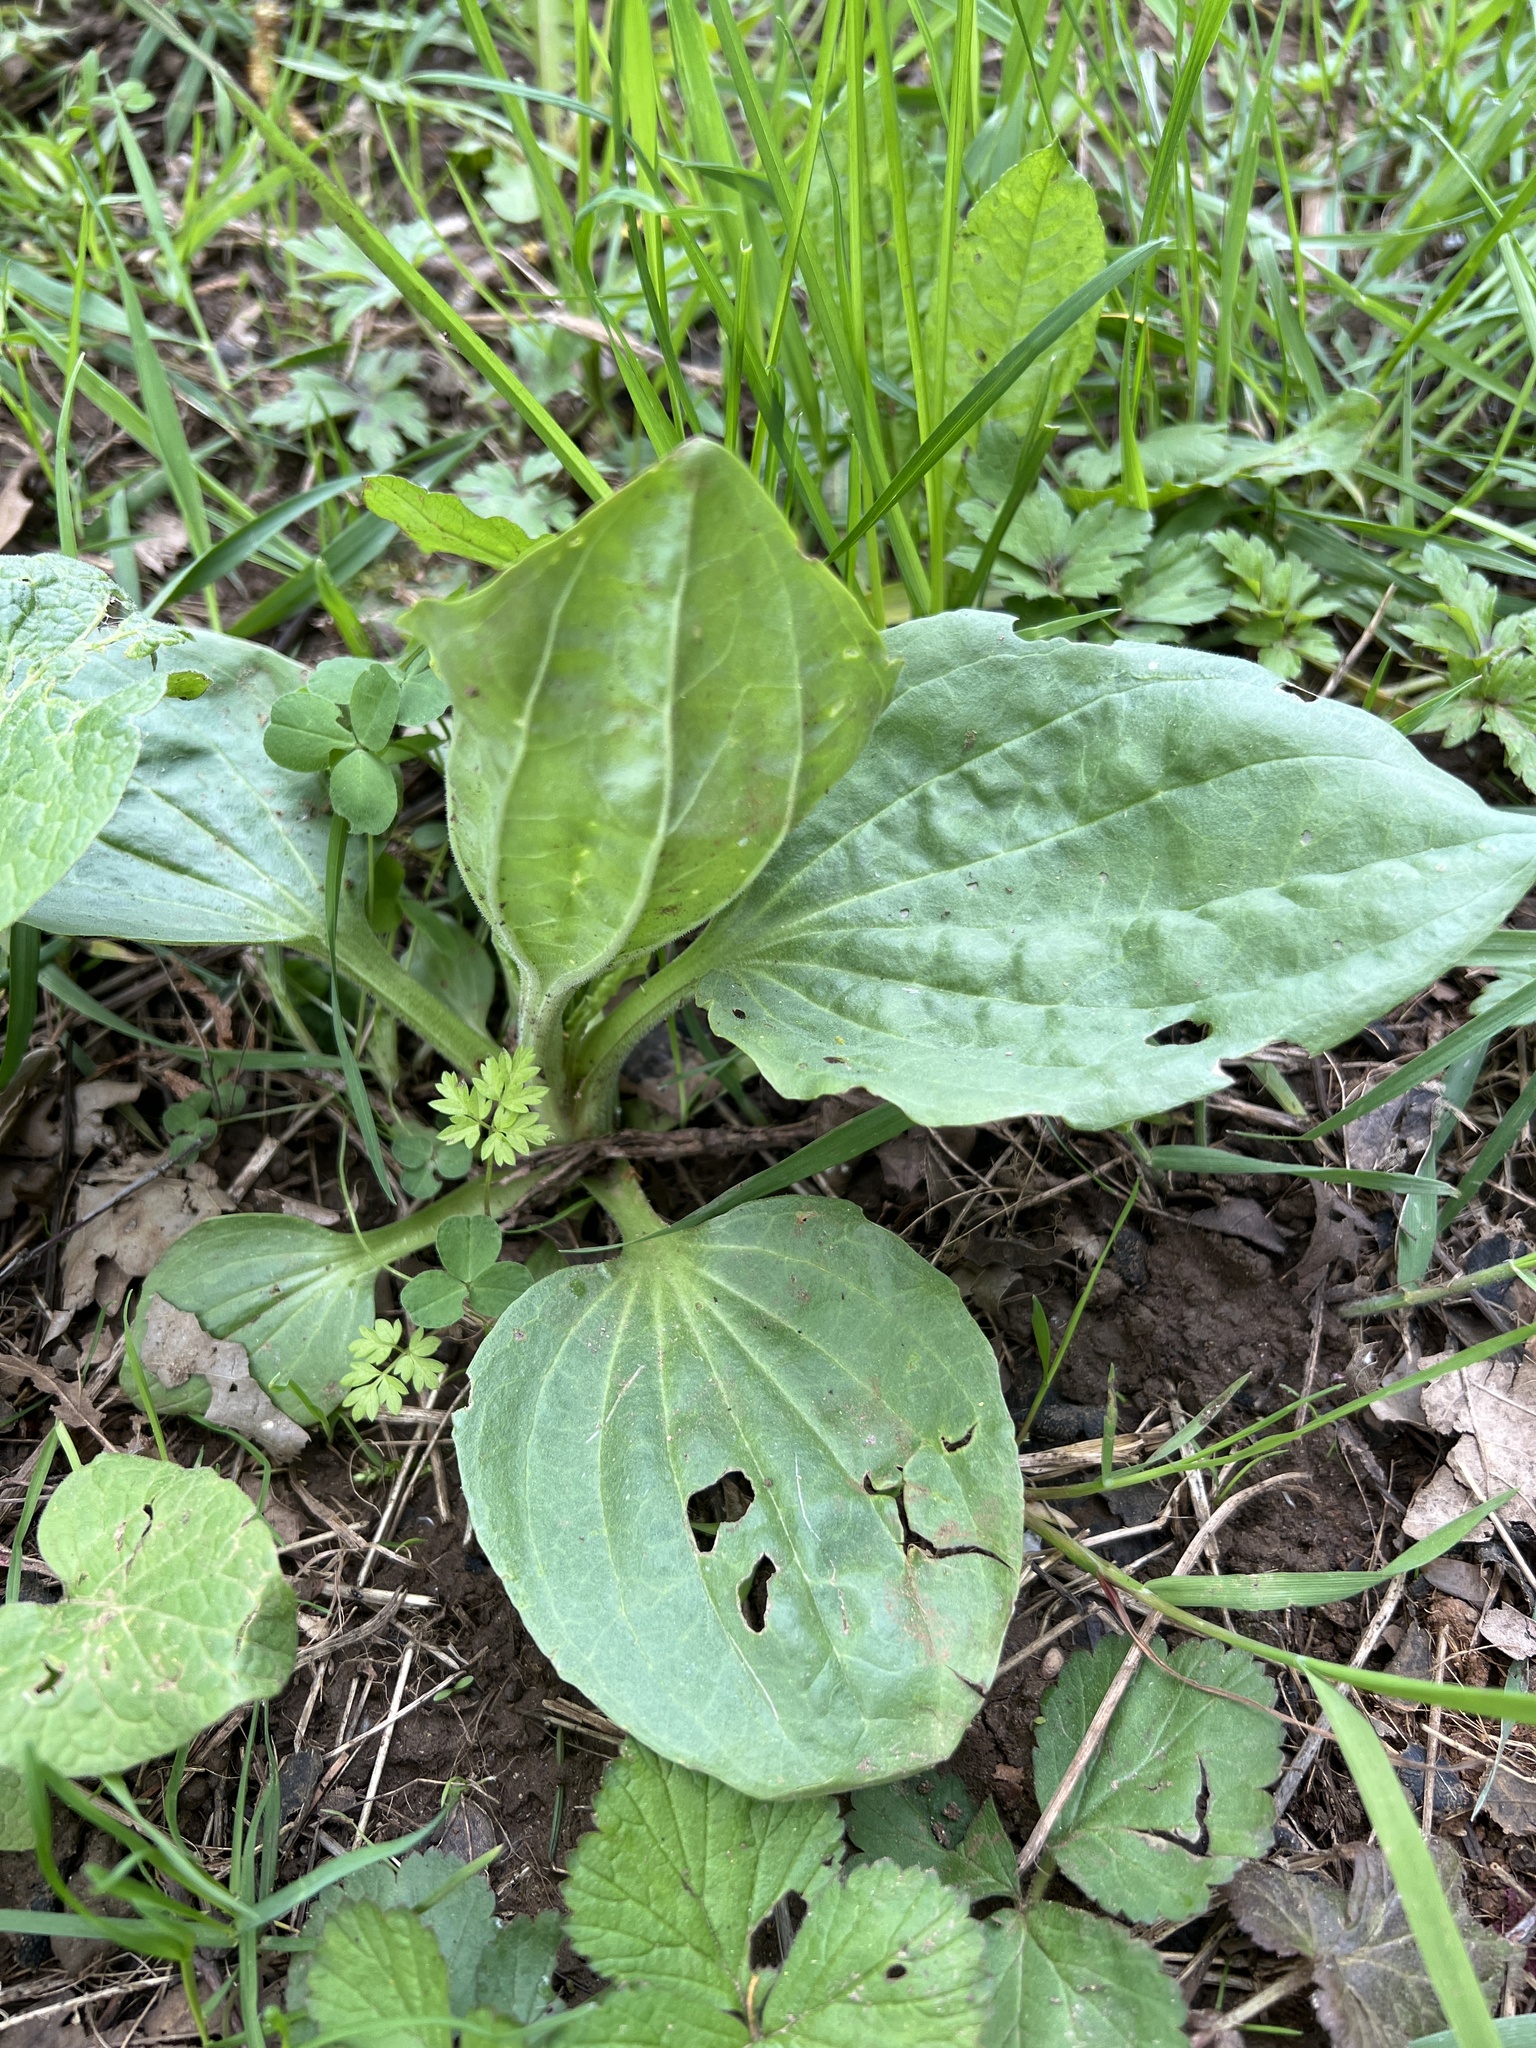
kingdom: Plantae
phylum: Tracheophyta
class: Magnoliopsida
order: Lamiales
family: Plantaginaceae
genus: Plantago
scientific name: Plantago major
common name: Common plantain
